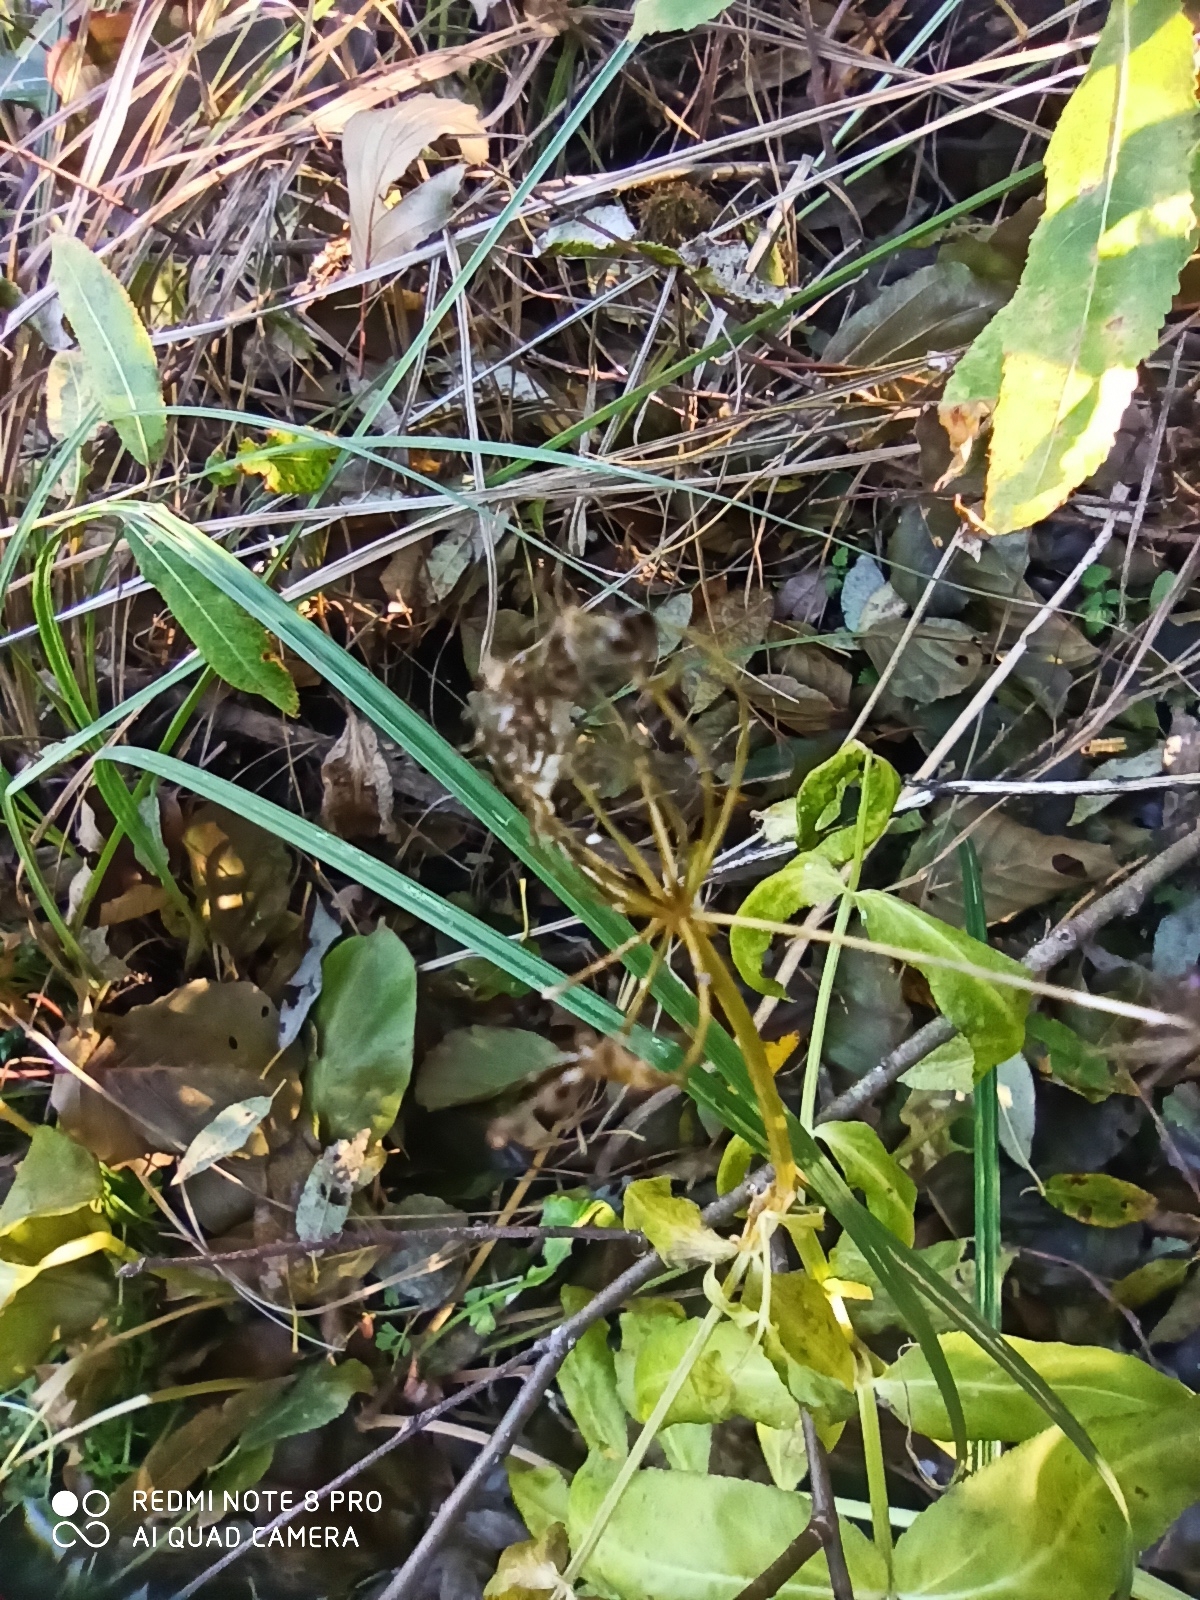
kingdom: Plantae
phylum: Tracheophyta
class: Magnoliopsida
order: Apiales
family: Apiaceae
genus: Sium
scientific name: Sium latifolium
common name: Greater water-parsnip
